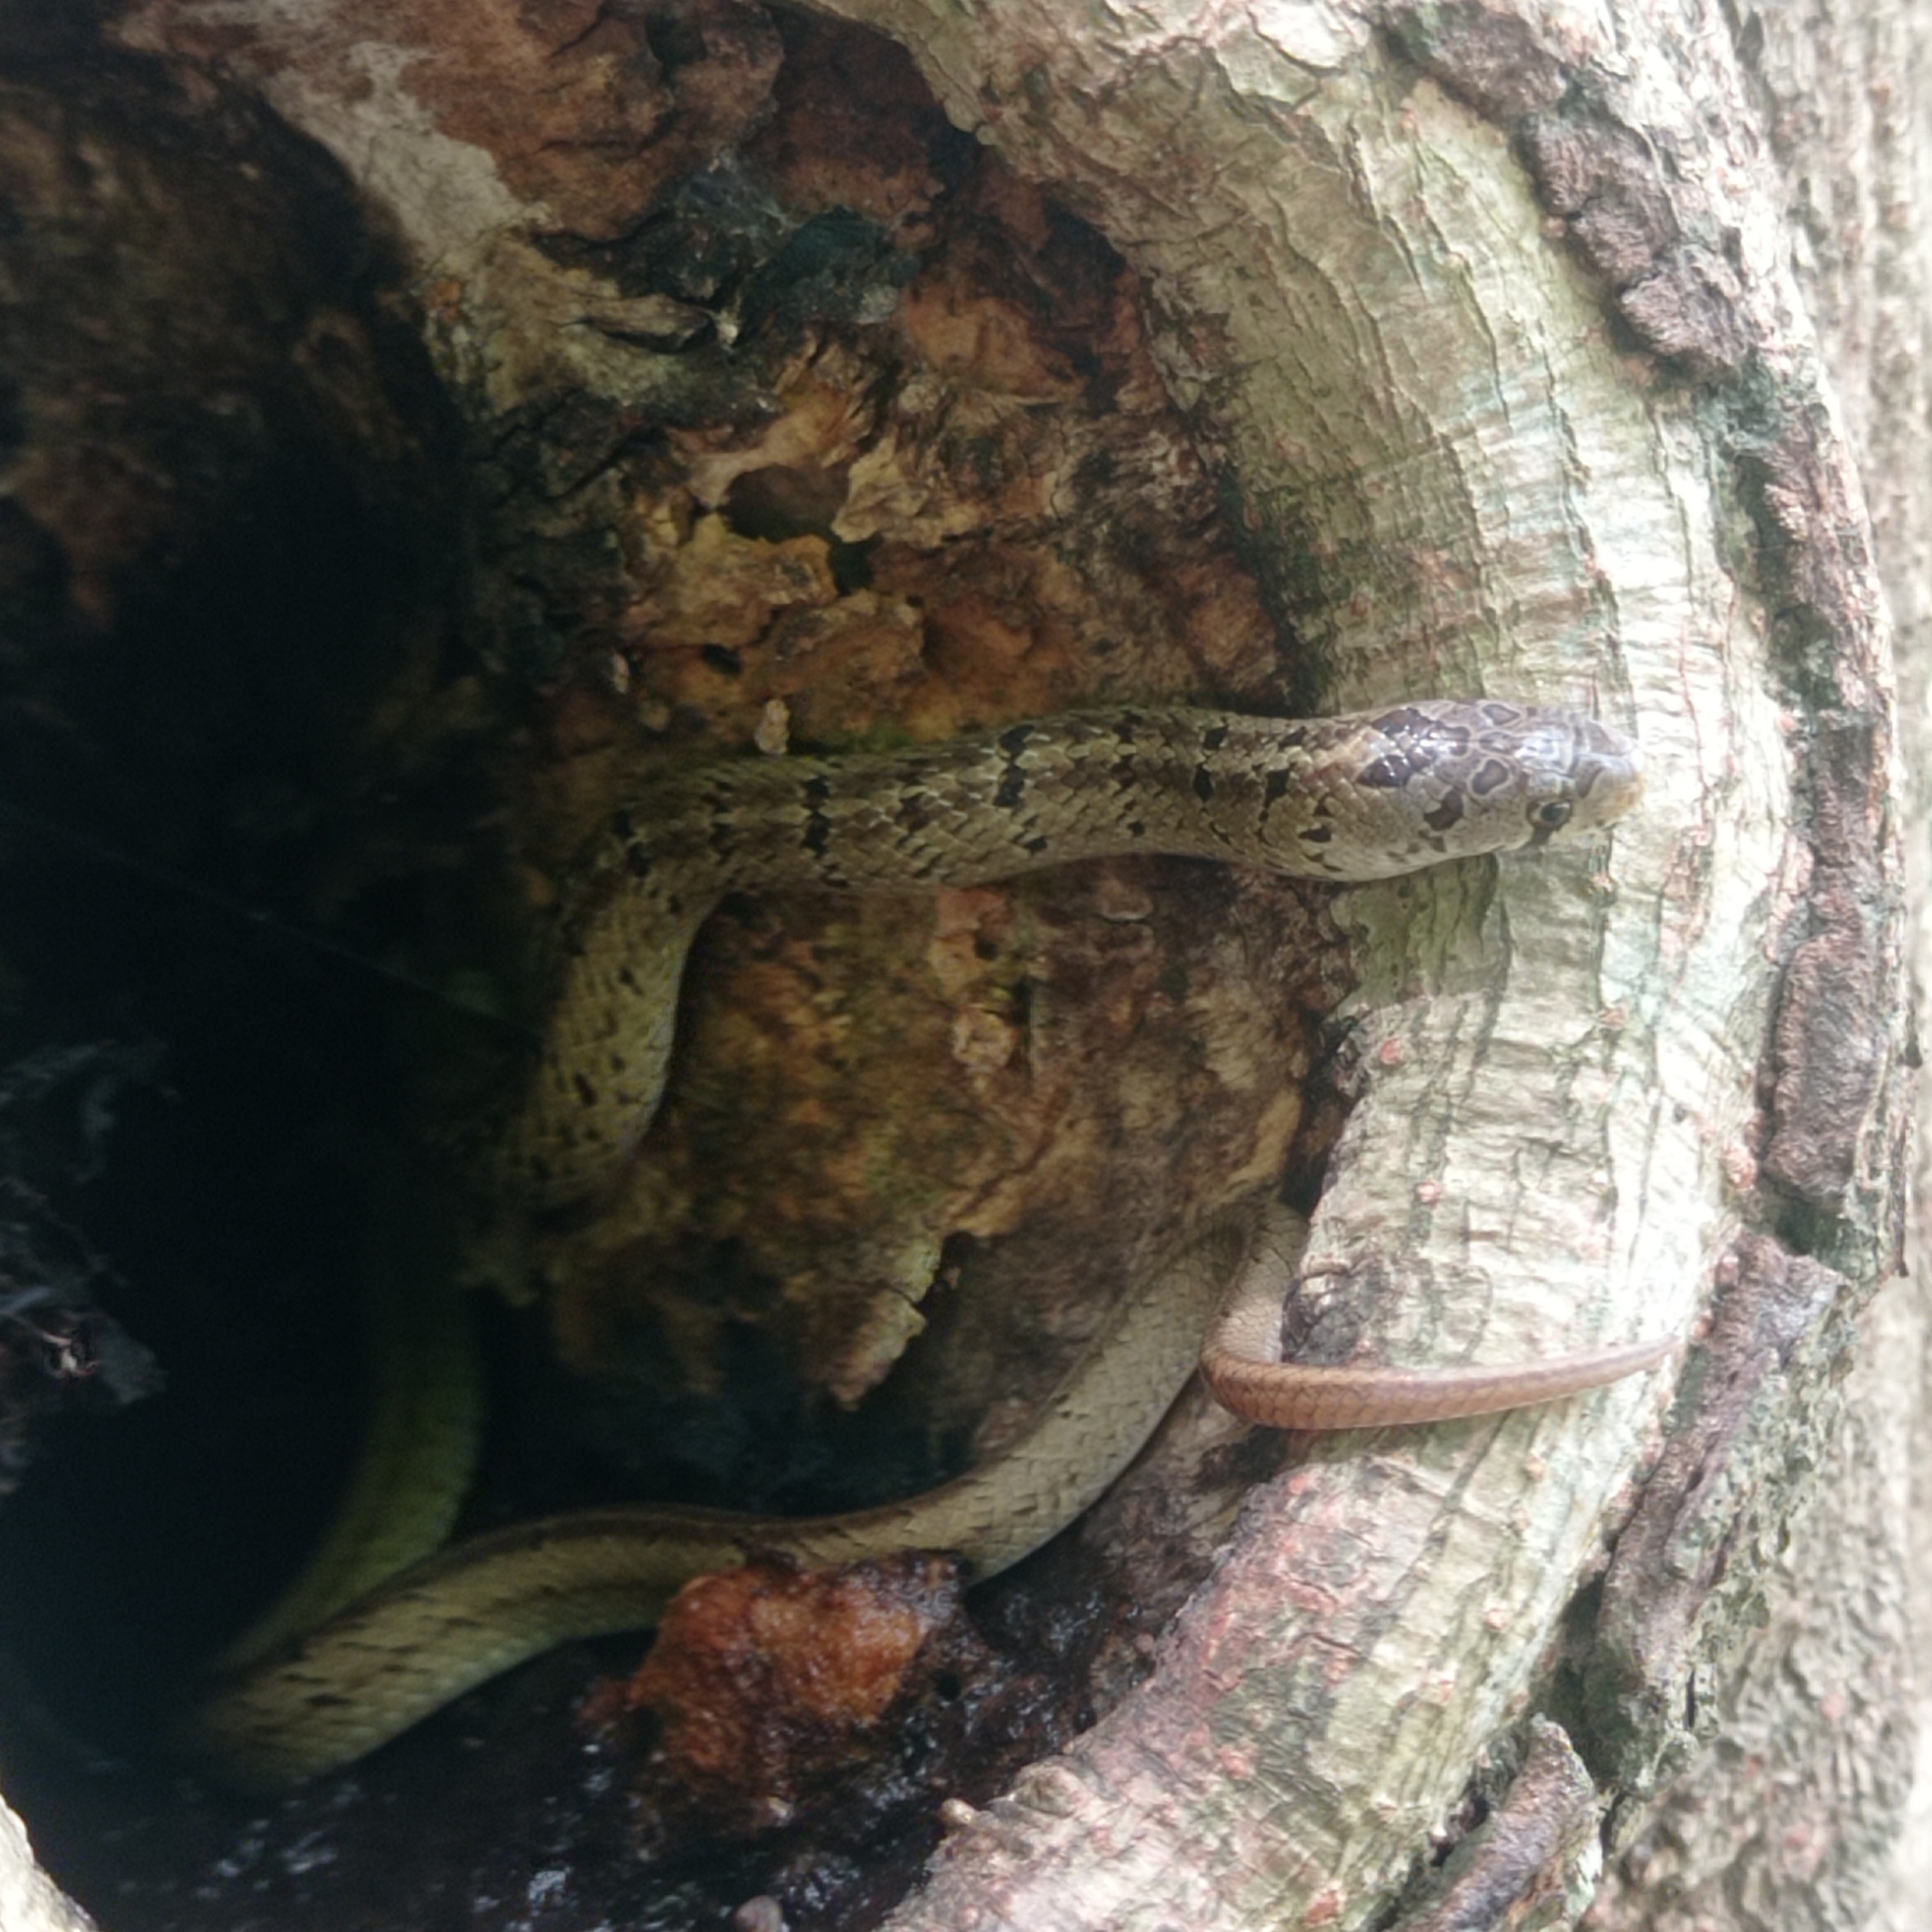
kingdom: Animalia
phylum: Chordata
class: Squamata
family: Colubridae
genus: Oligodon
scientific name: Oligodon formosanus
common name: Formosa kukri snake
